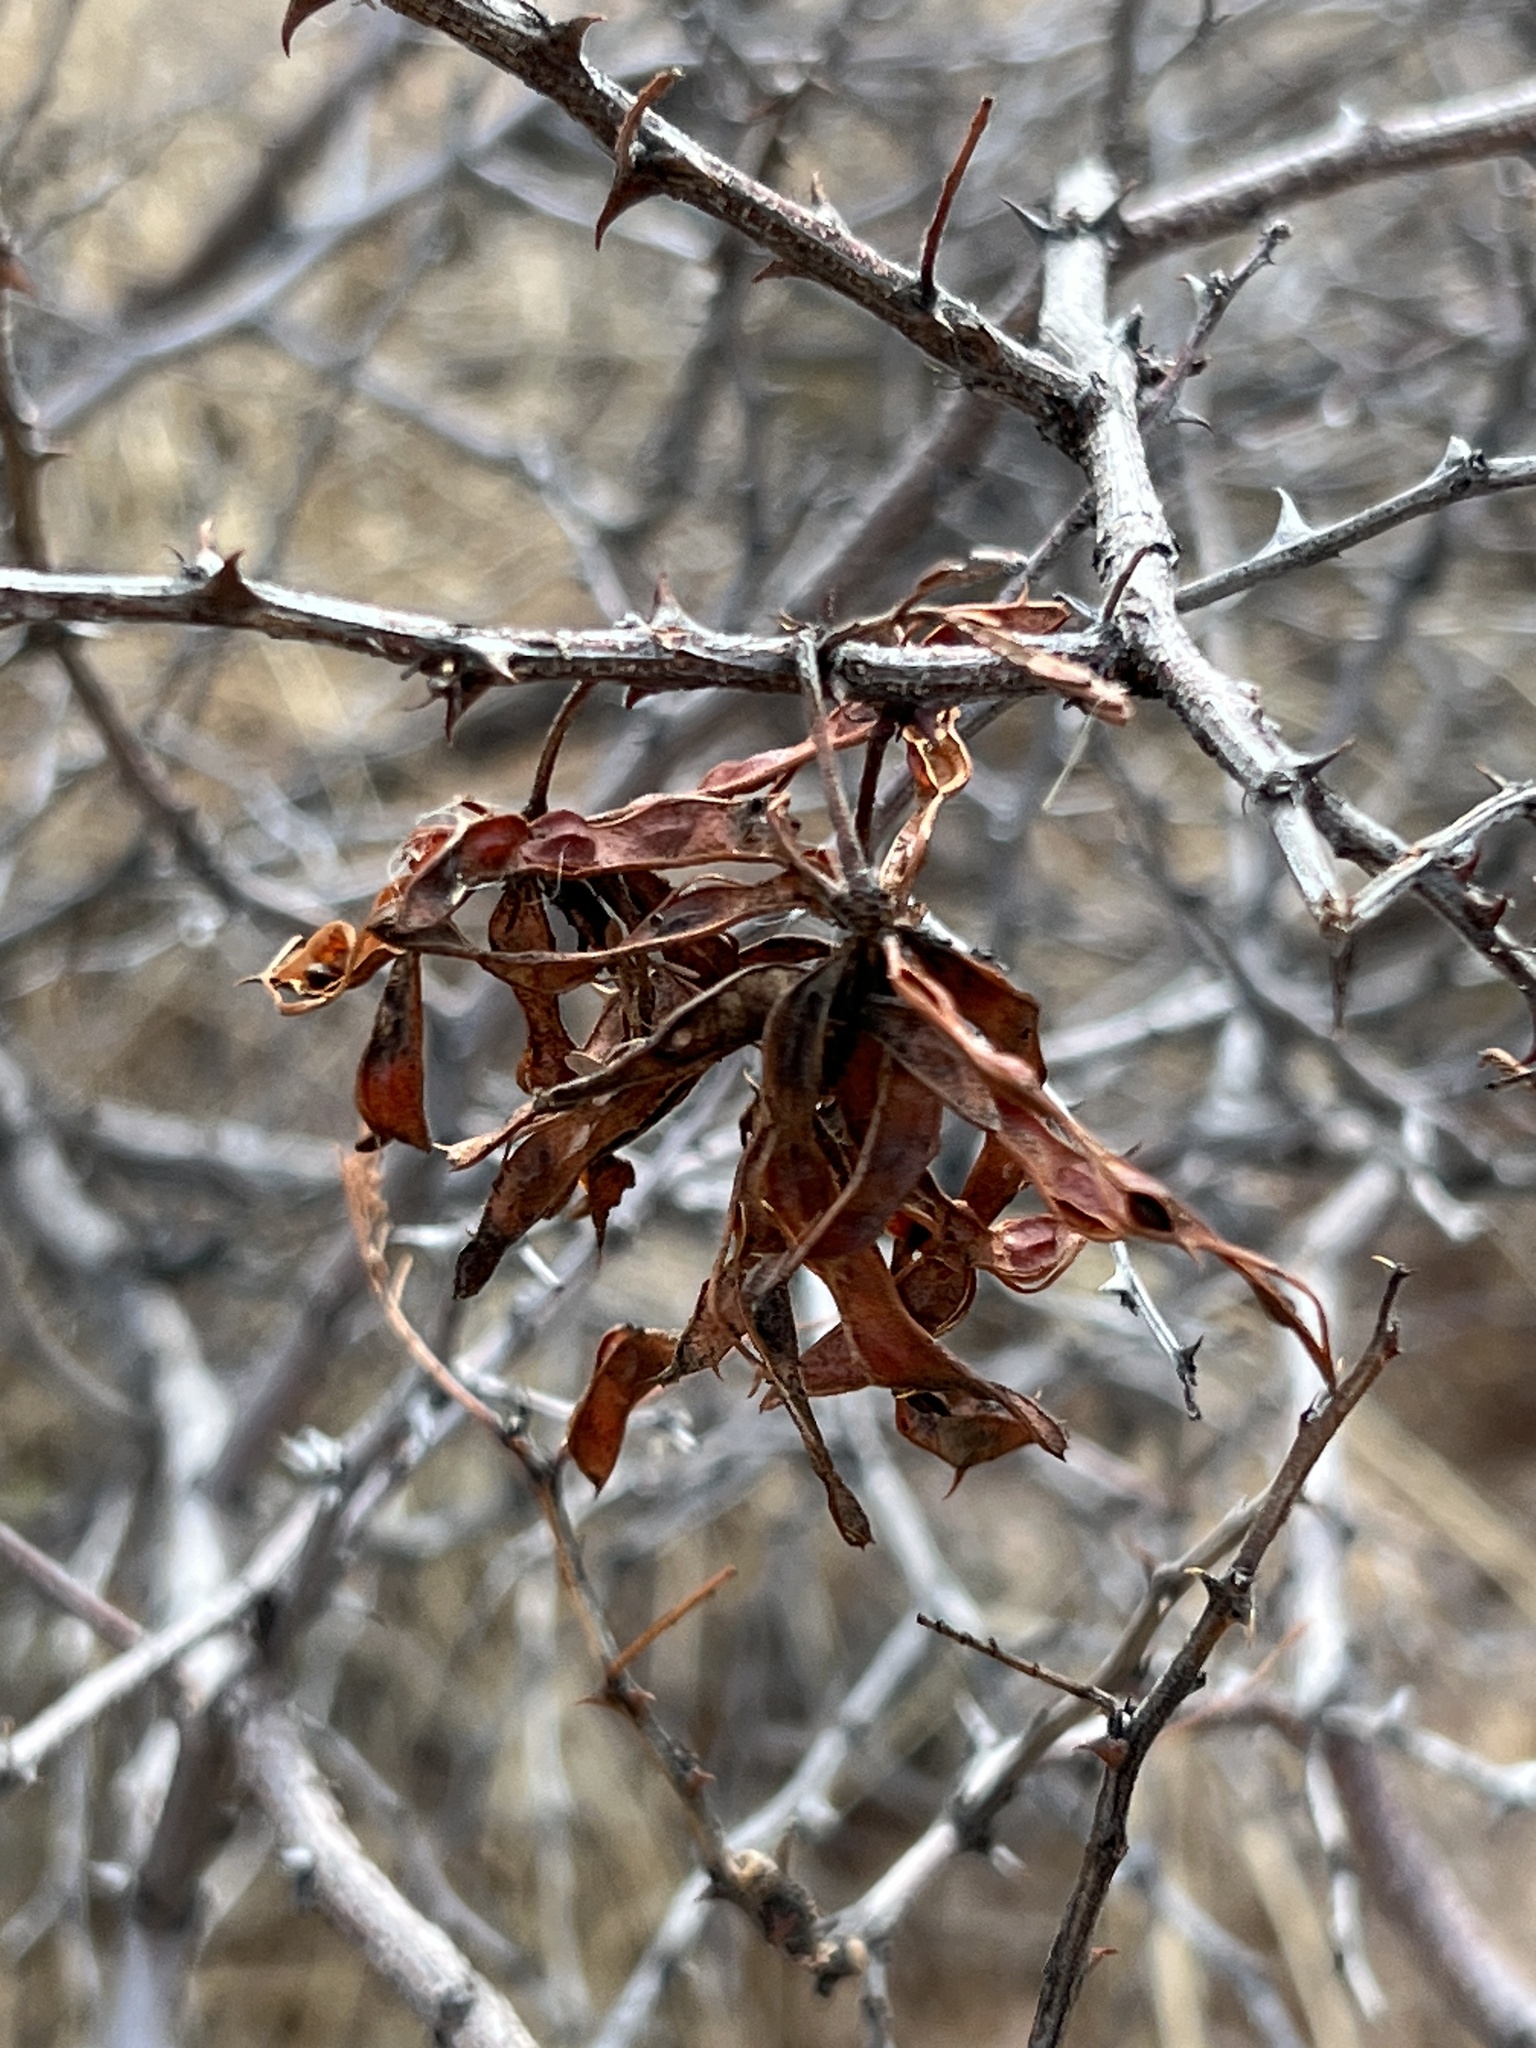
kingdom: Plantae
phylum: Tracheophyta
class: Magnoliopsida
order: Fabales
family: Fabaceae
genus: Mimosa
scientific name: Mimosa aculeaticarpa
